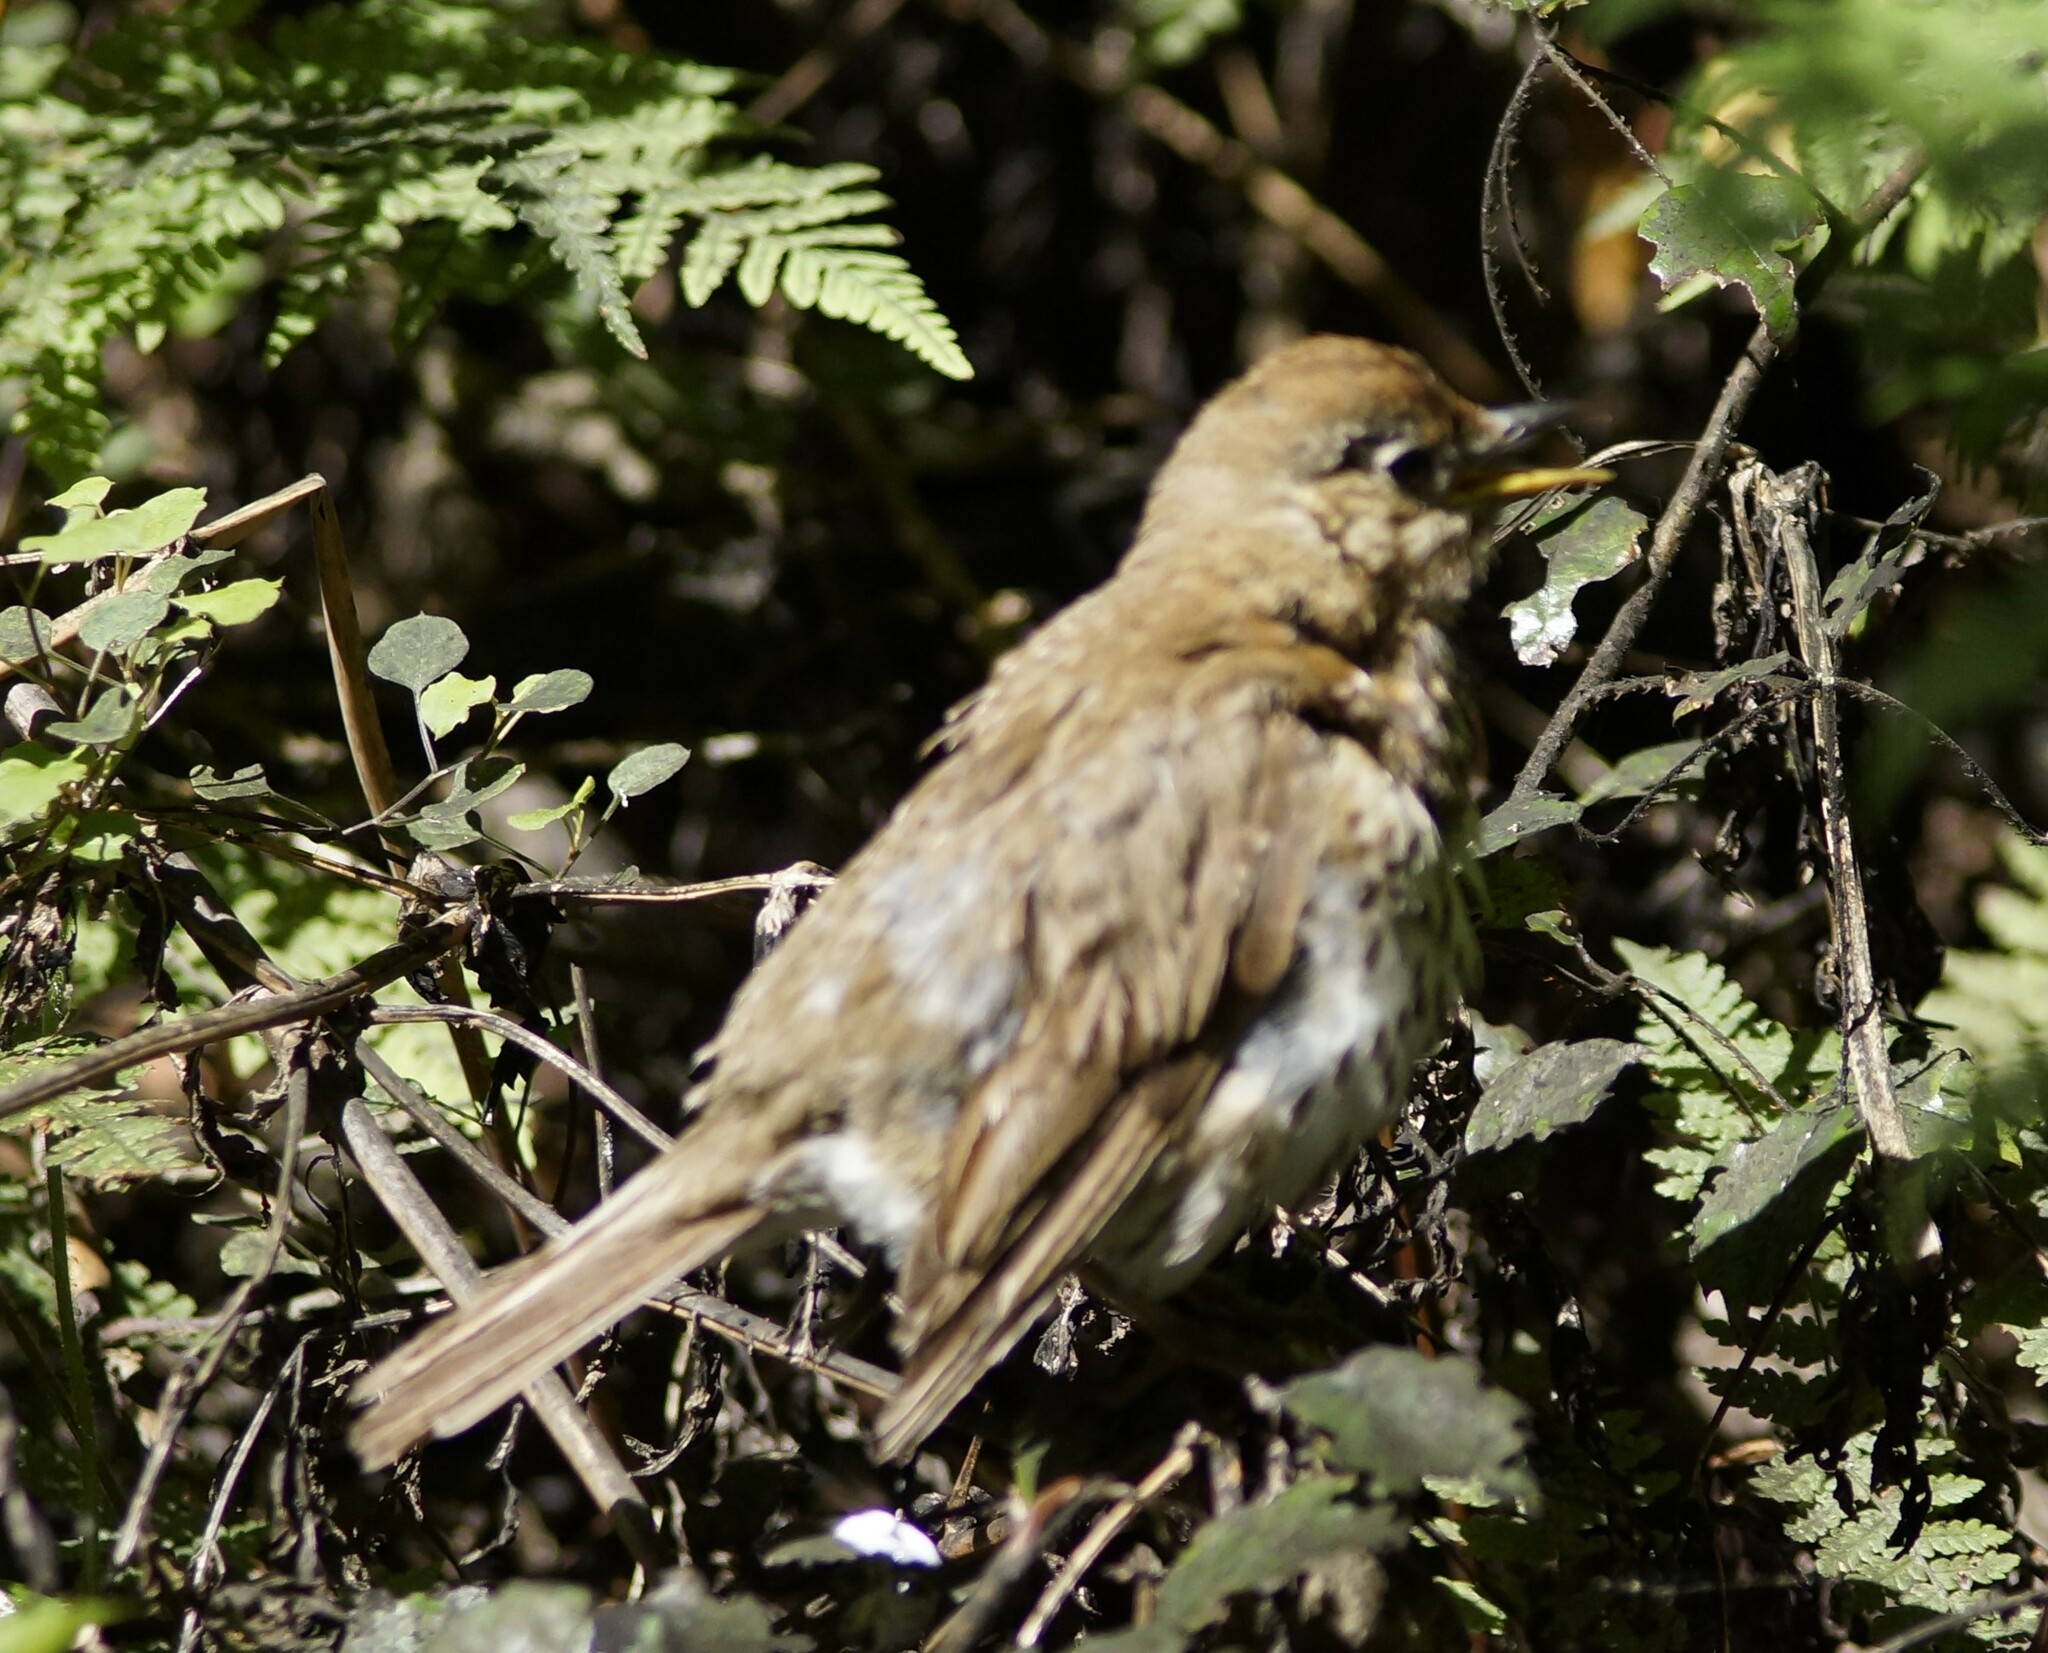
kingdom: Animalia
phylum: Chordata
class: Aves
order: Passeriformes
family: Turdidae
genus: Turdus
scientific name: Turdus philomelos
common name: Song thrush
